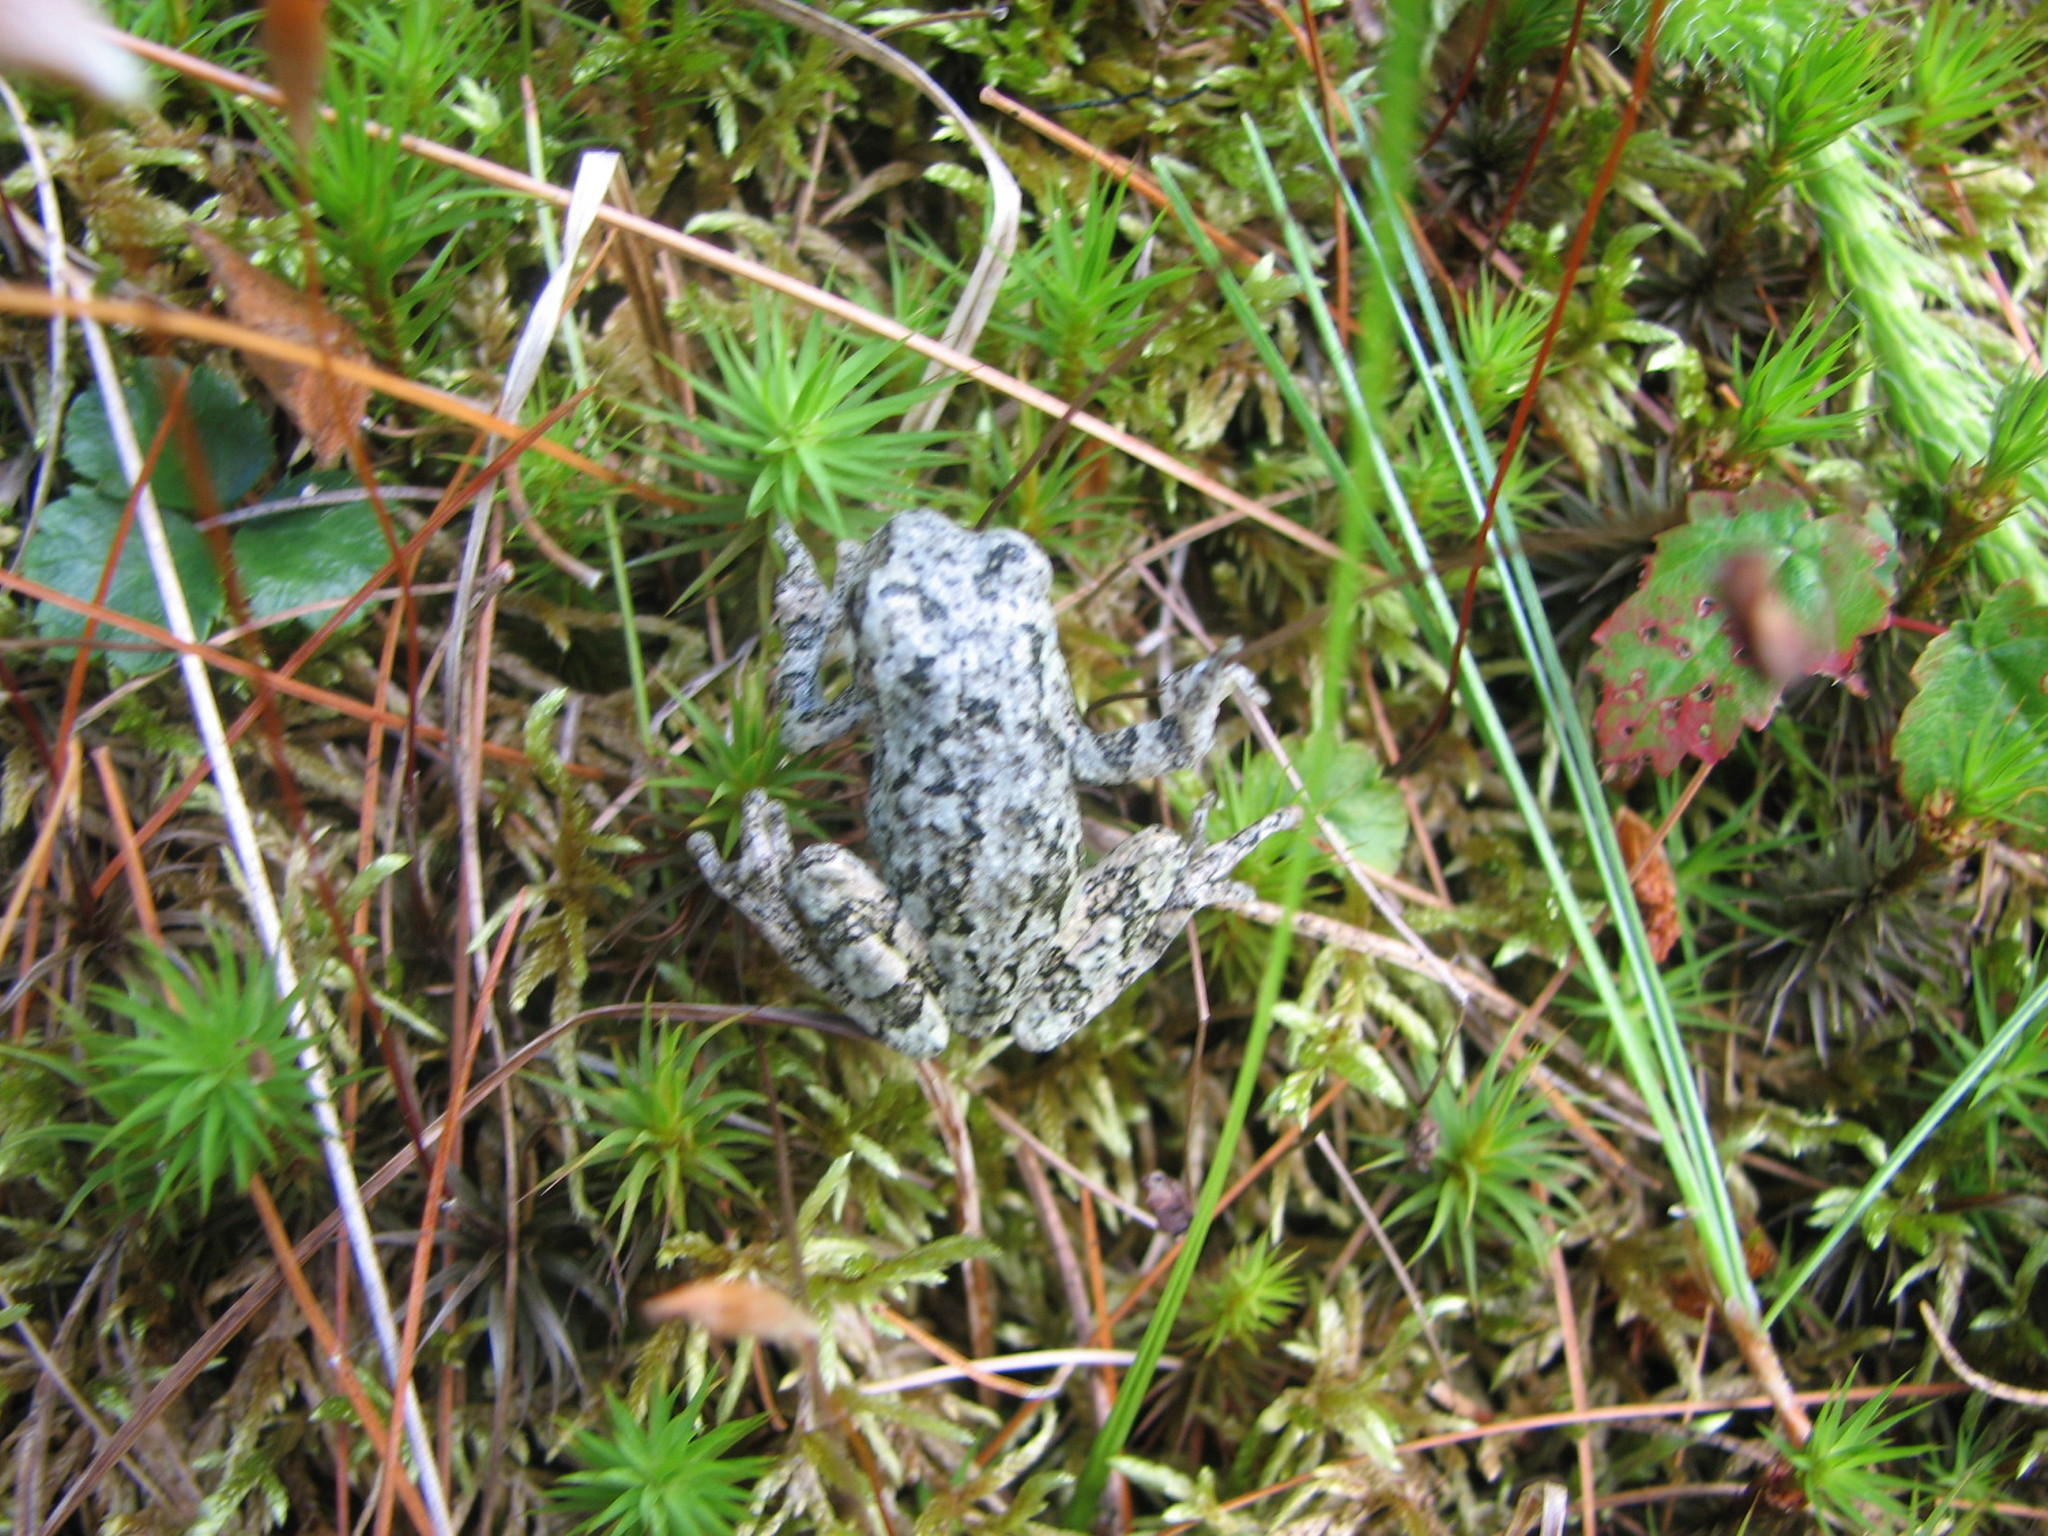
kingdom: Animalia
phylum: Chordata
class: Amphibia
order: Anura
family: Hylidae
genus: Dryophytes
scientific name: Dryophytes versicolor
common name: Gray treefrog
